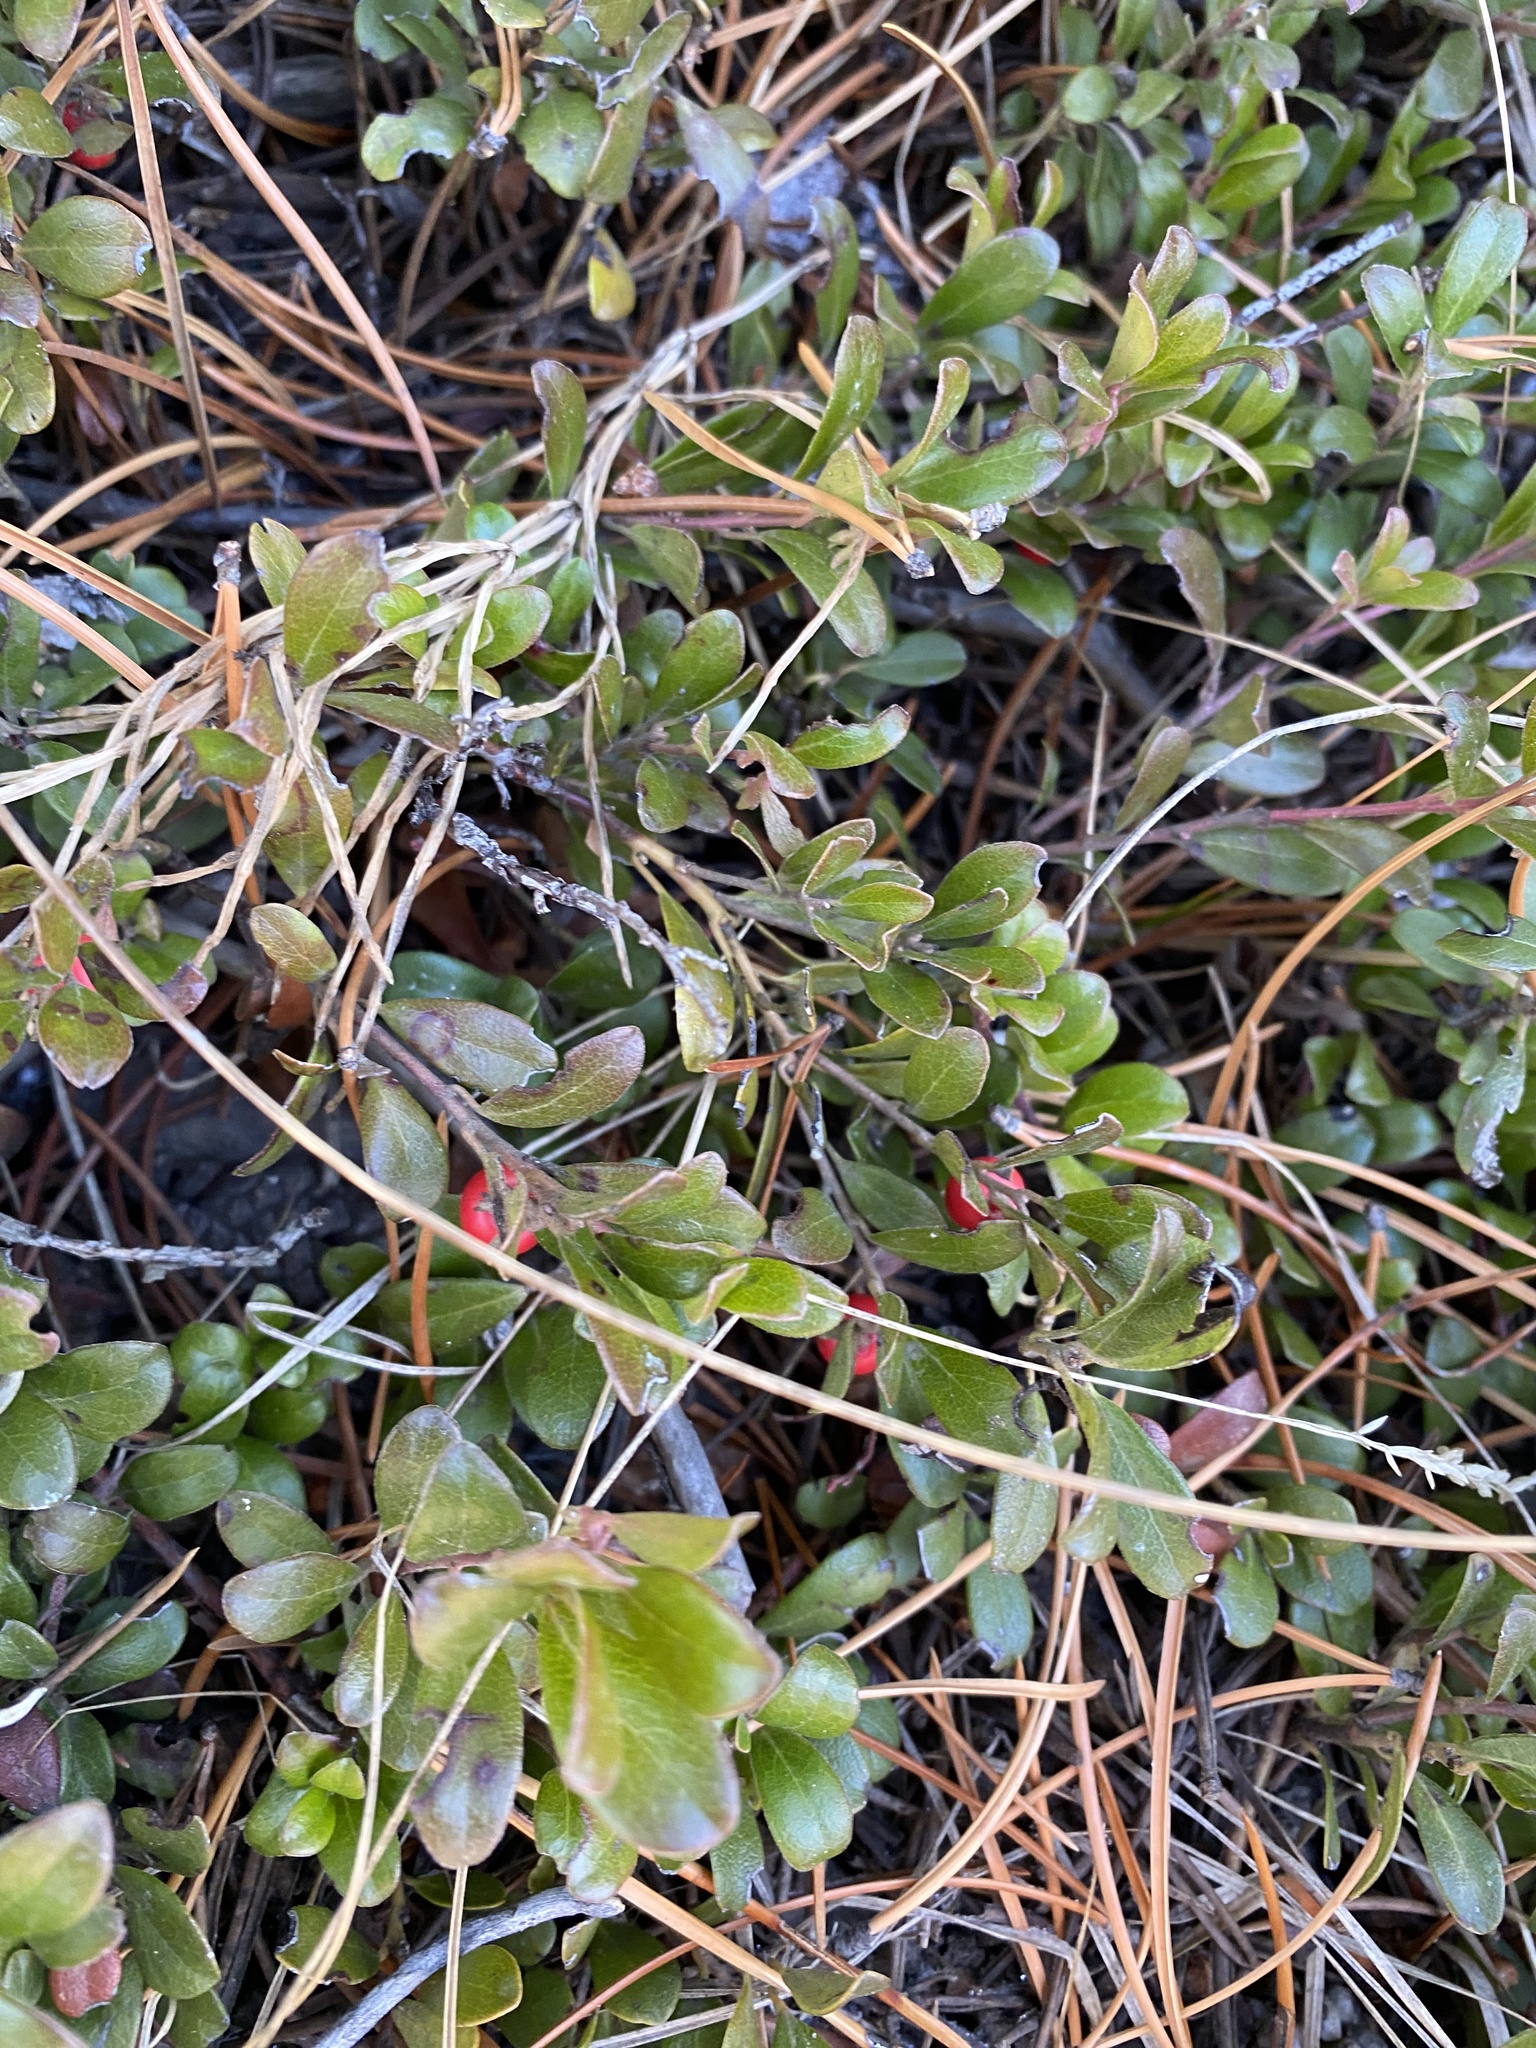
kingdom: Plantae
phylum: Tracheophyta
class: Magnoliopsida
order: Ericales
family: Ericaceae
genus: Arctostaphylos
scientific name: Arctostaphylos uva-ursi
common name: Bearberry
